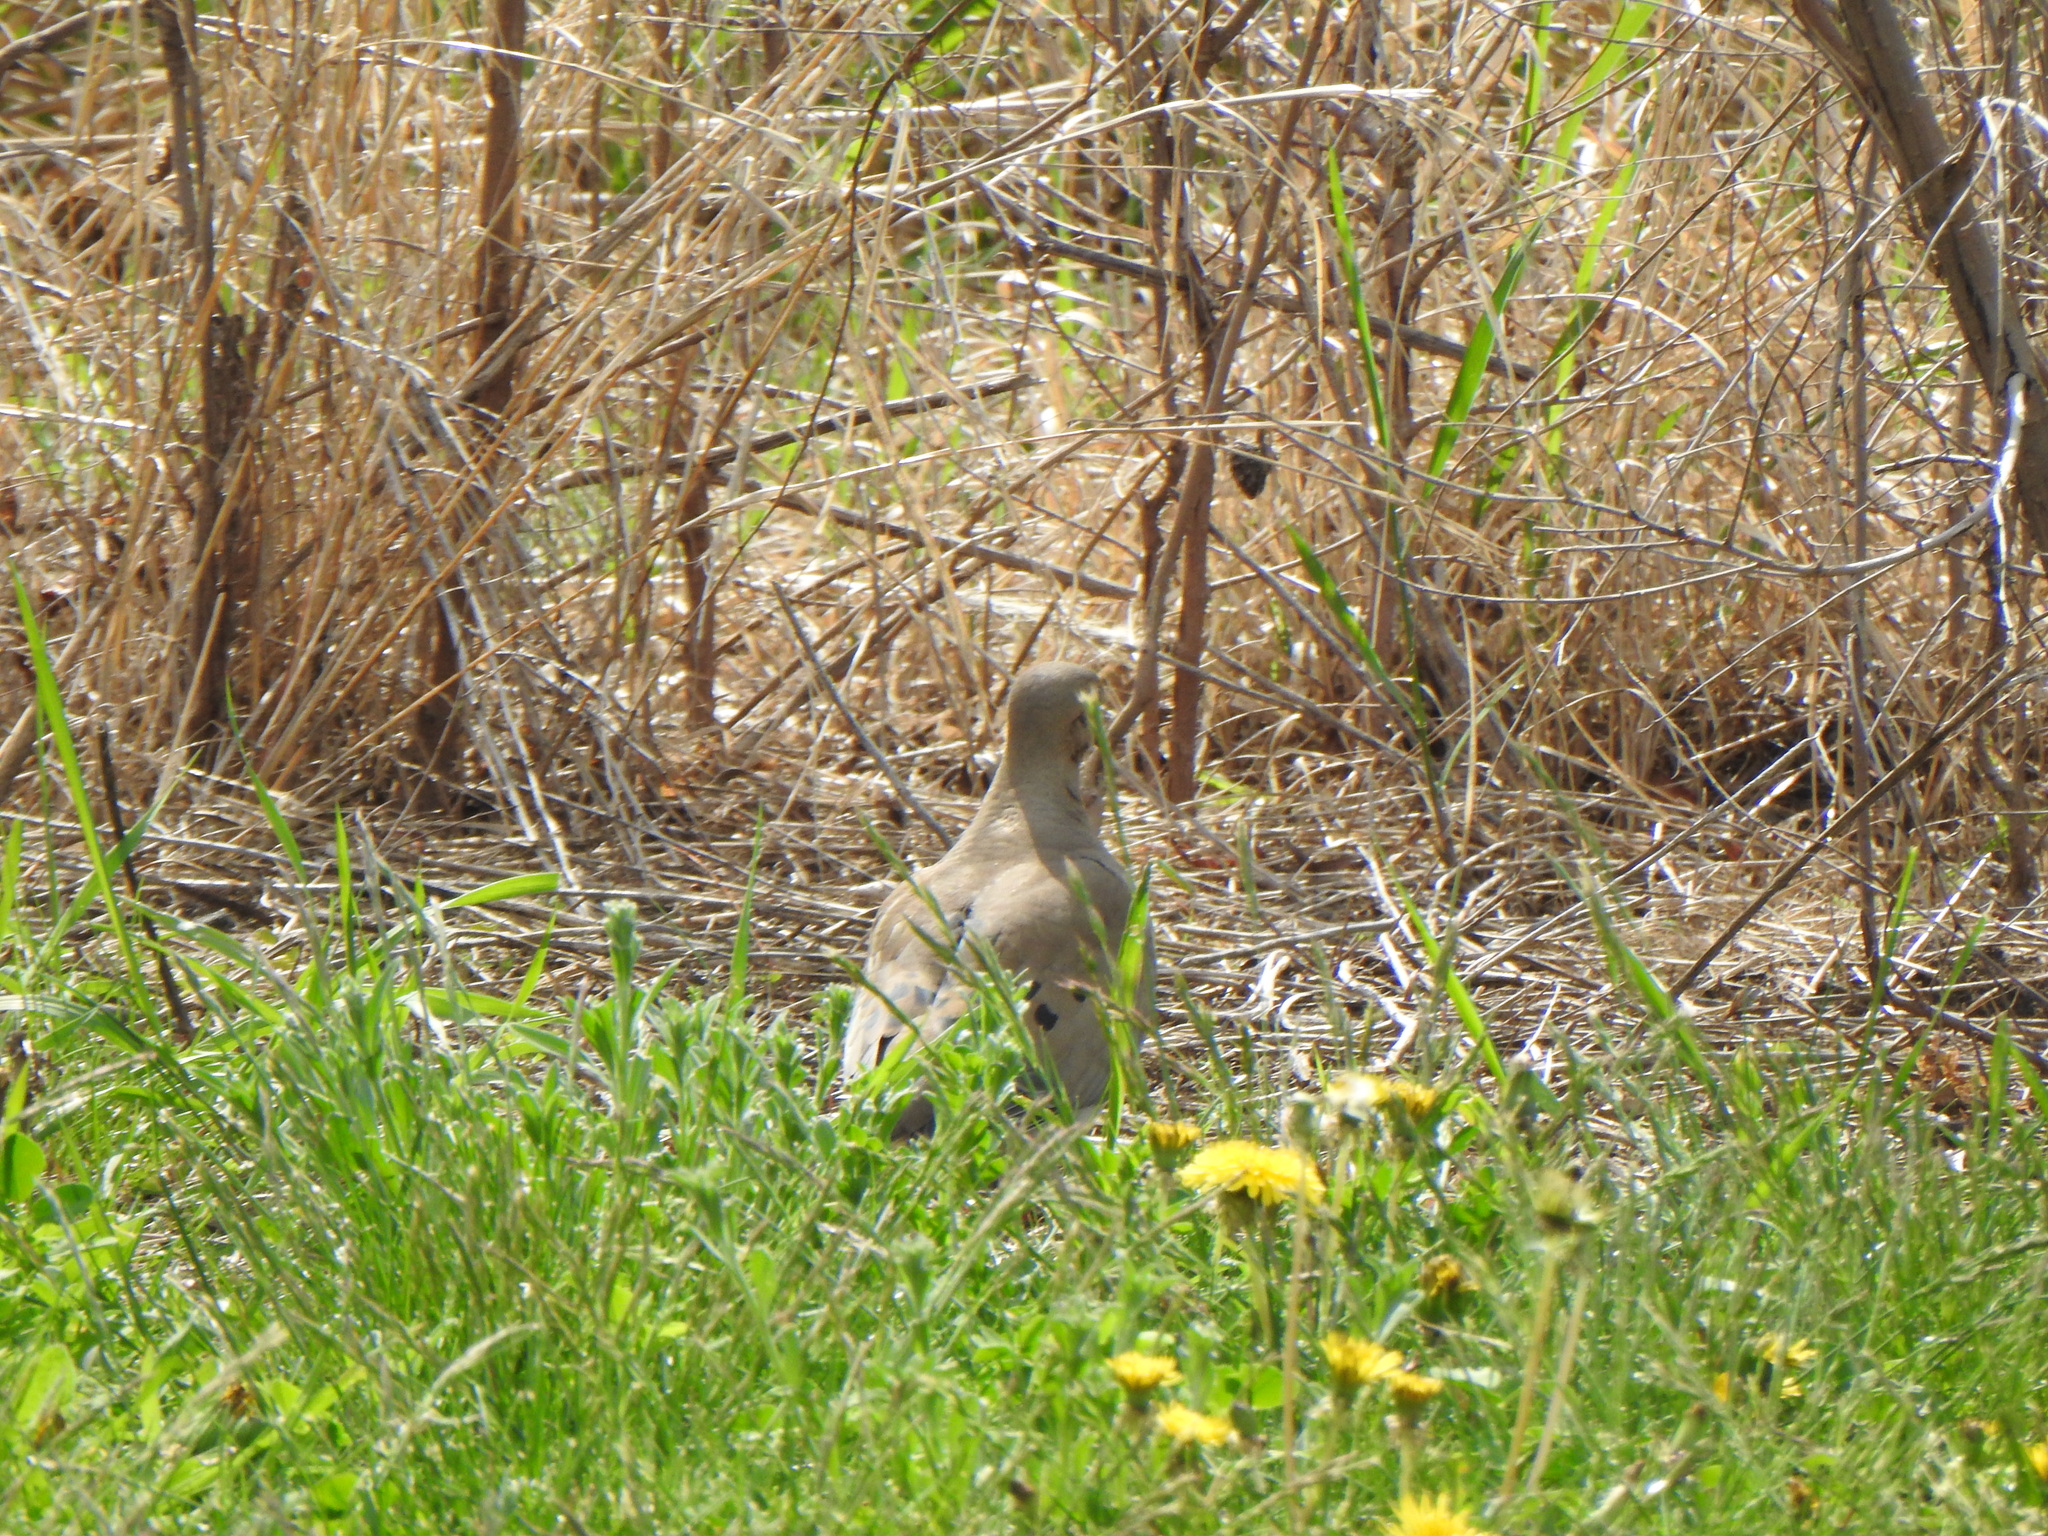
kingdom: Animalia
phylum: Chordata
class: Aves
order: Columbiformes
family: Columbidae
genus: Zenaida
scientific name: Zenaida macroura
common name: Mourning dove
